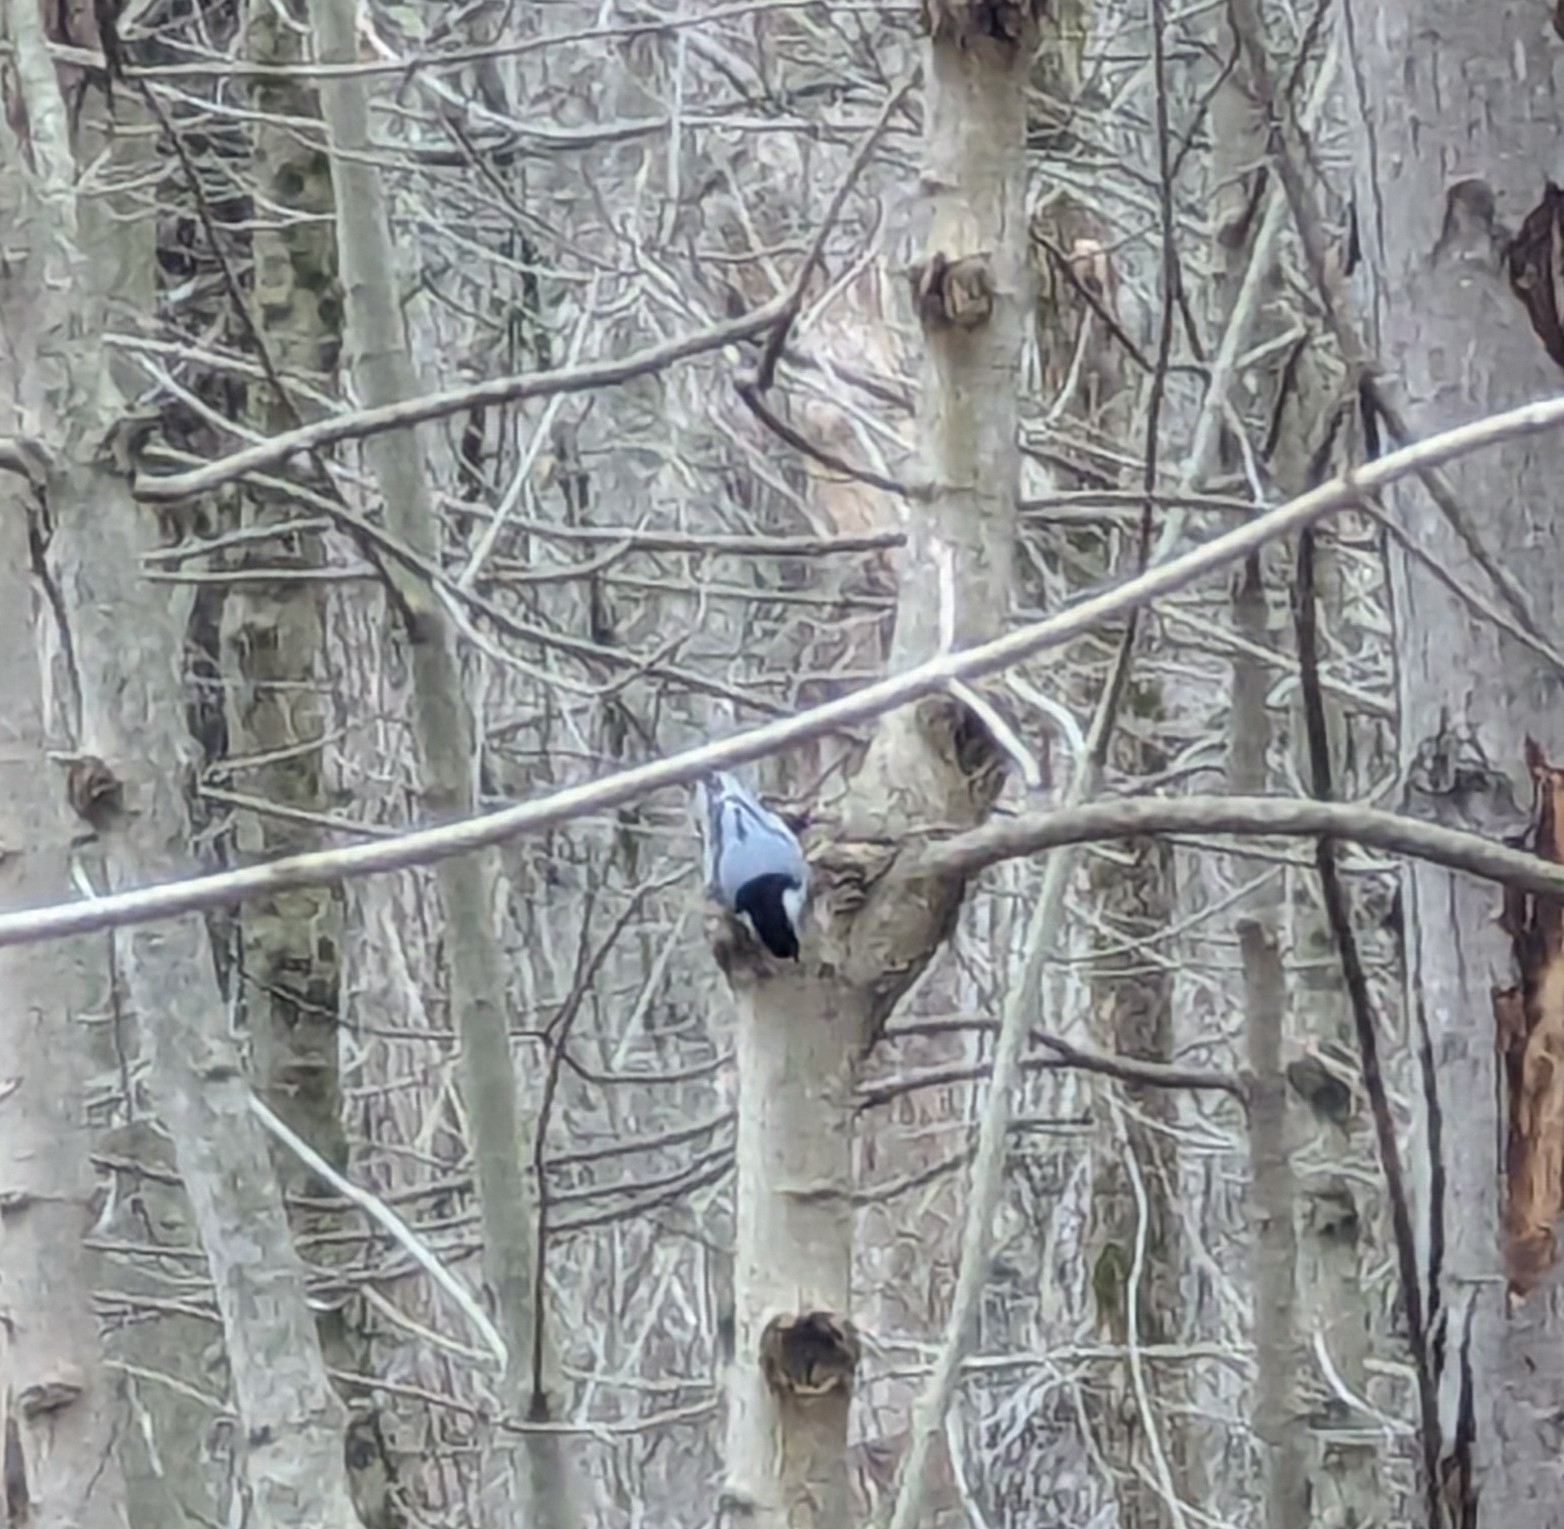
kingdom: Animalia
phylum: Chordata
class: Aves
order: Passeriformes
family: Sittidae
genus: Sitta
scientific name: Sitta carolinensis
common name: White-breasted nuthatch
